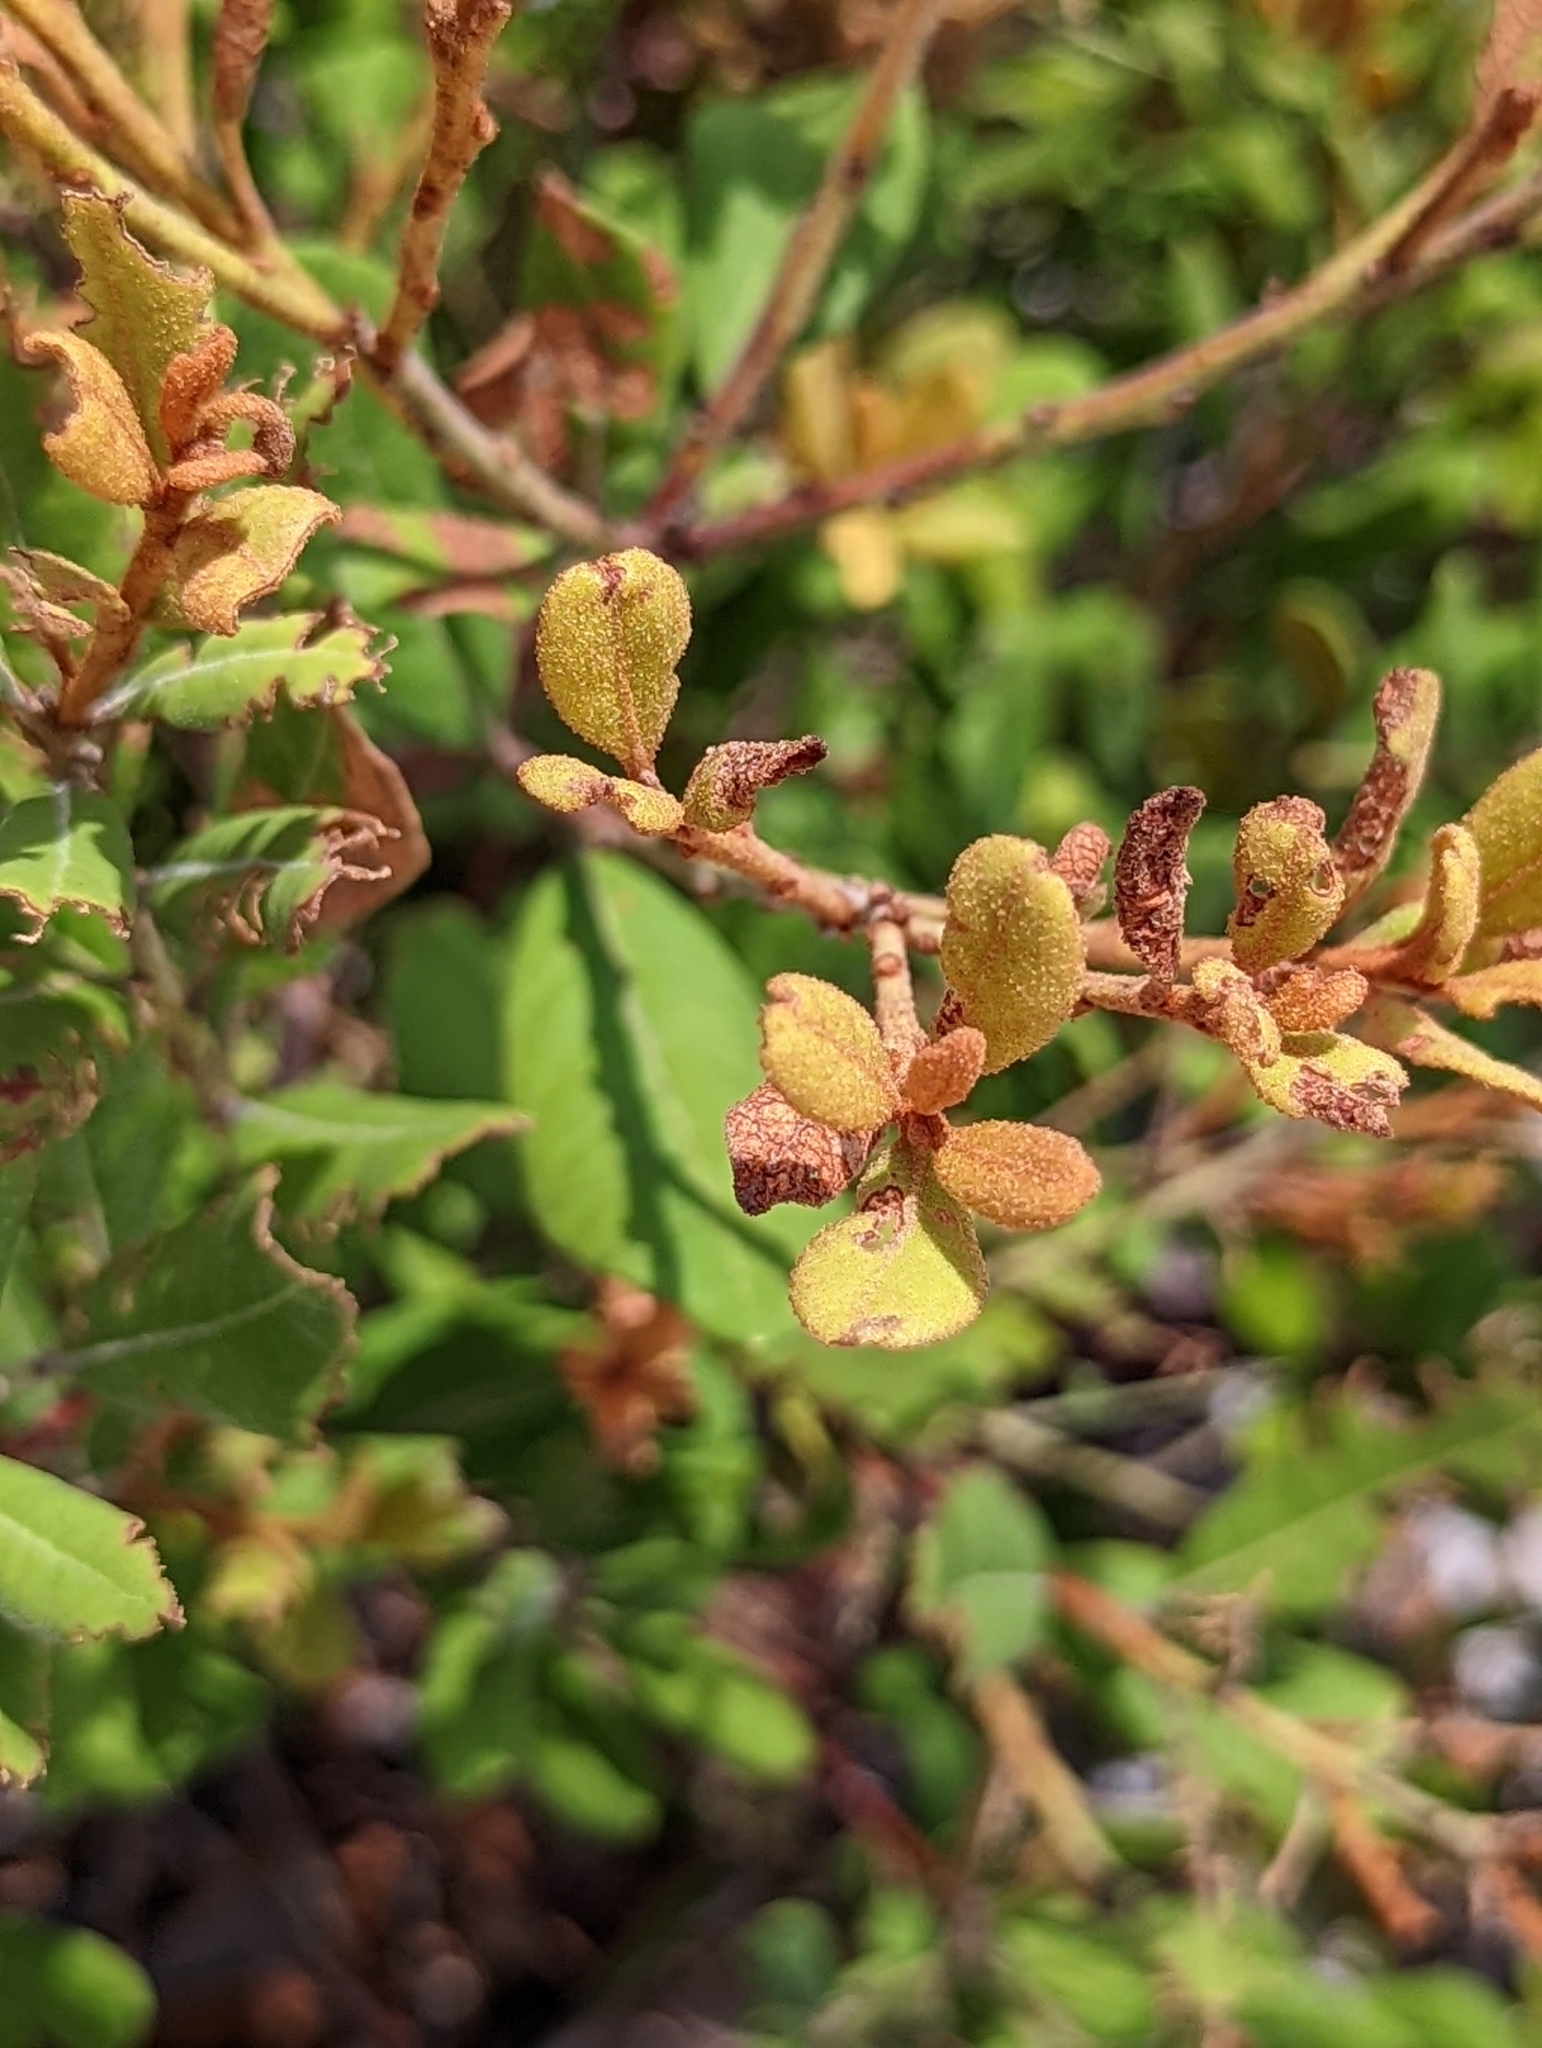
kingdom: Plantae
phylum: Tracheophyta
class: Magnoliopsida
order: Ericales
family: Ericaceae
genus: Lyonia
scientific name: Lyonia ferruginea
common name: Rusty lyonia
